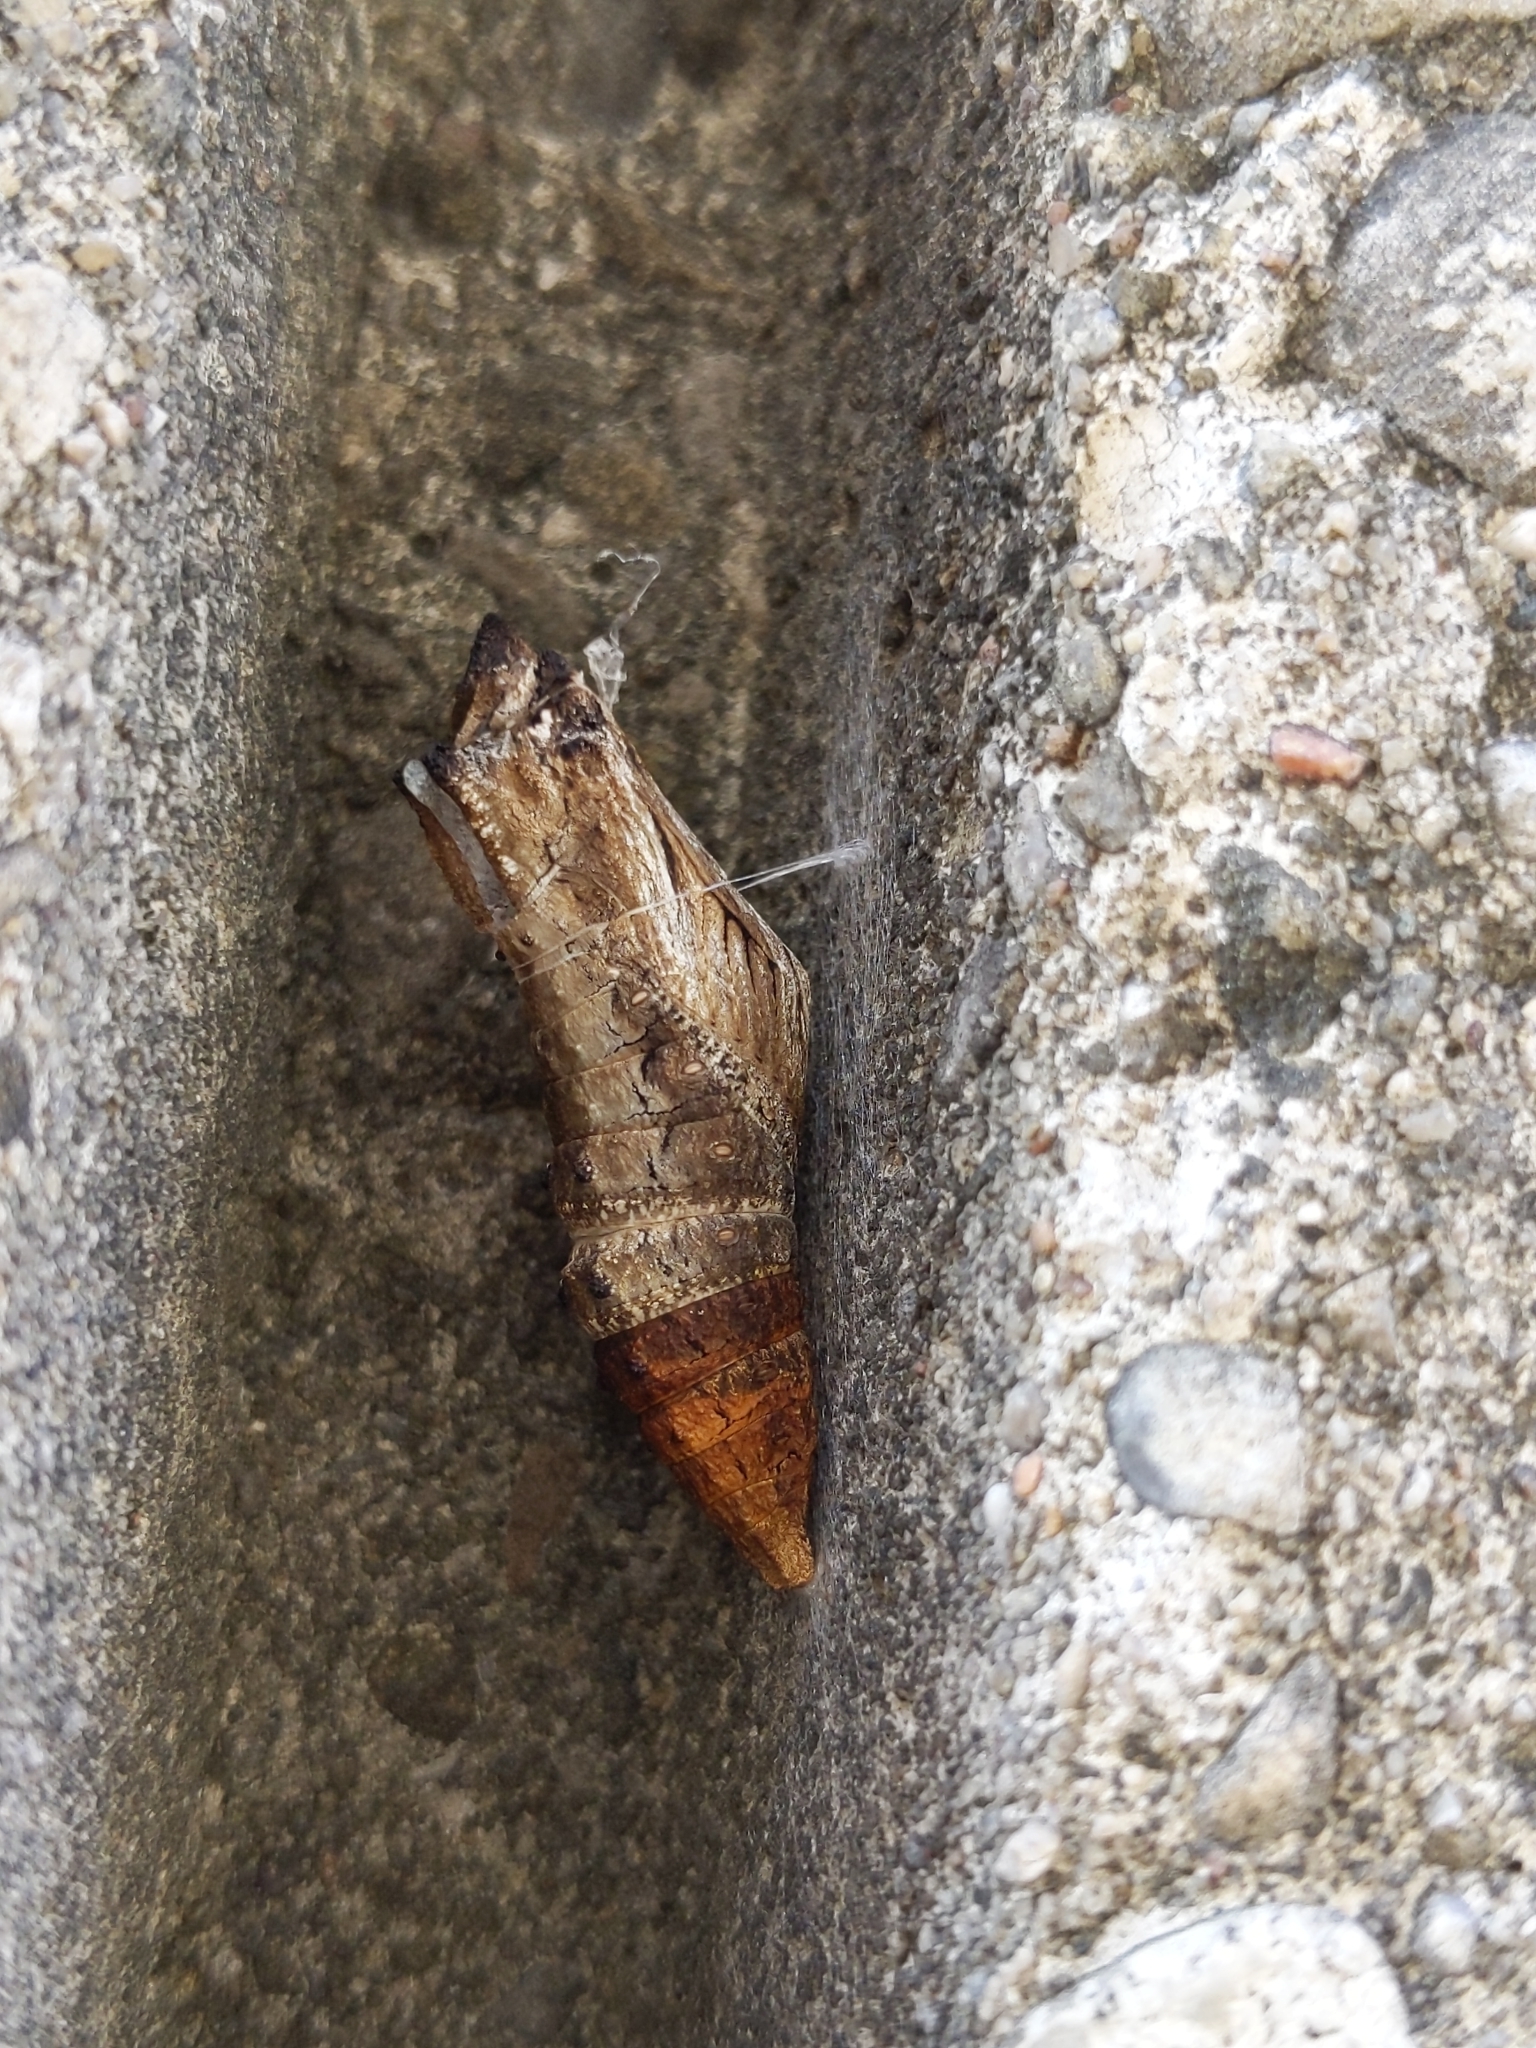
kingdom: Animalia
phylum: Arthropoda
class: Insecta
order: Lepidoptera
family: Papilionidae
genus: Papilio
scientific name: Papilio polyxenes
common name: Black swallowtail
